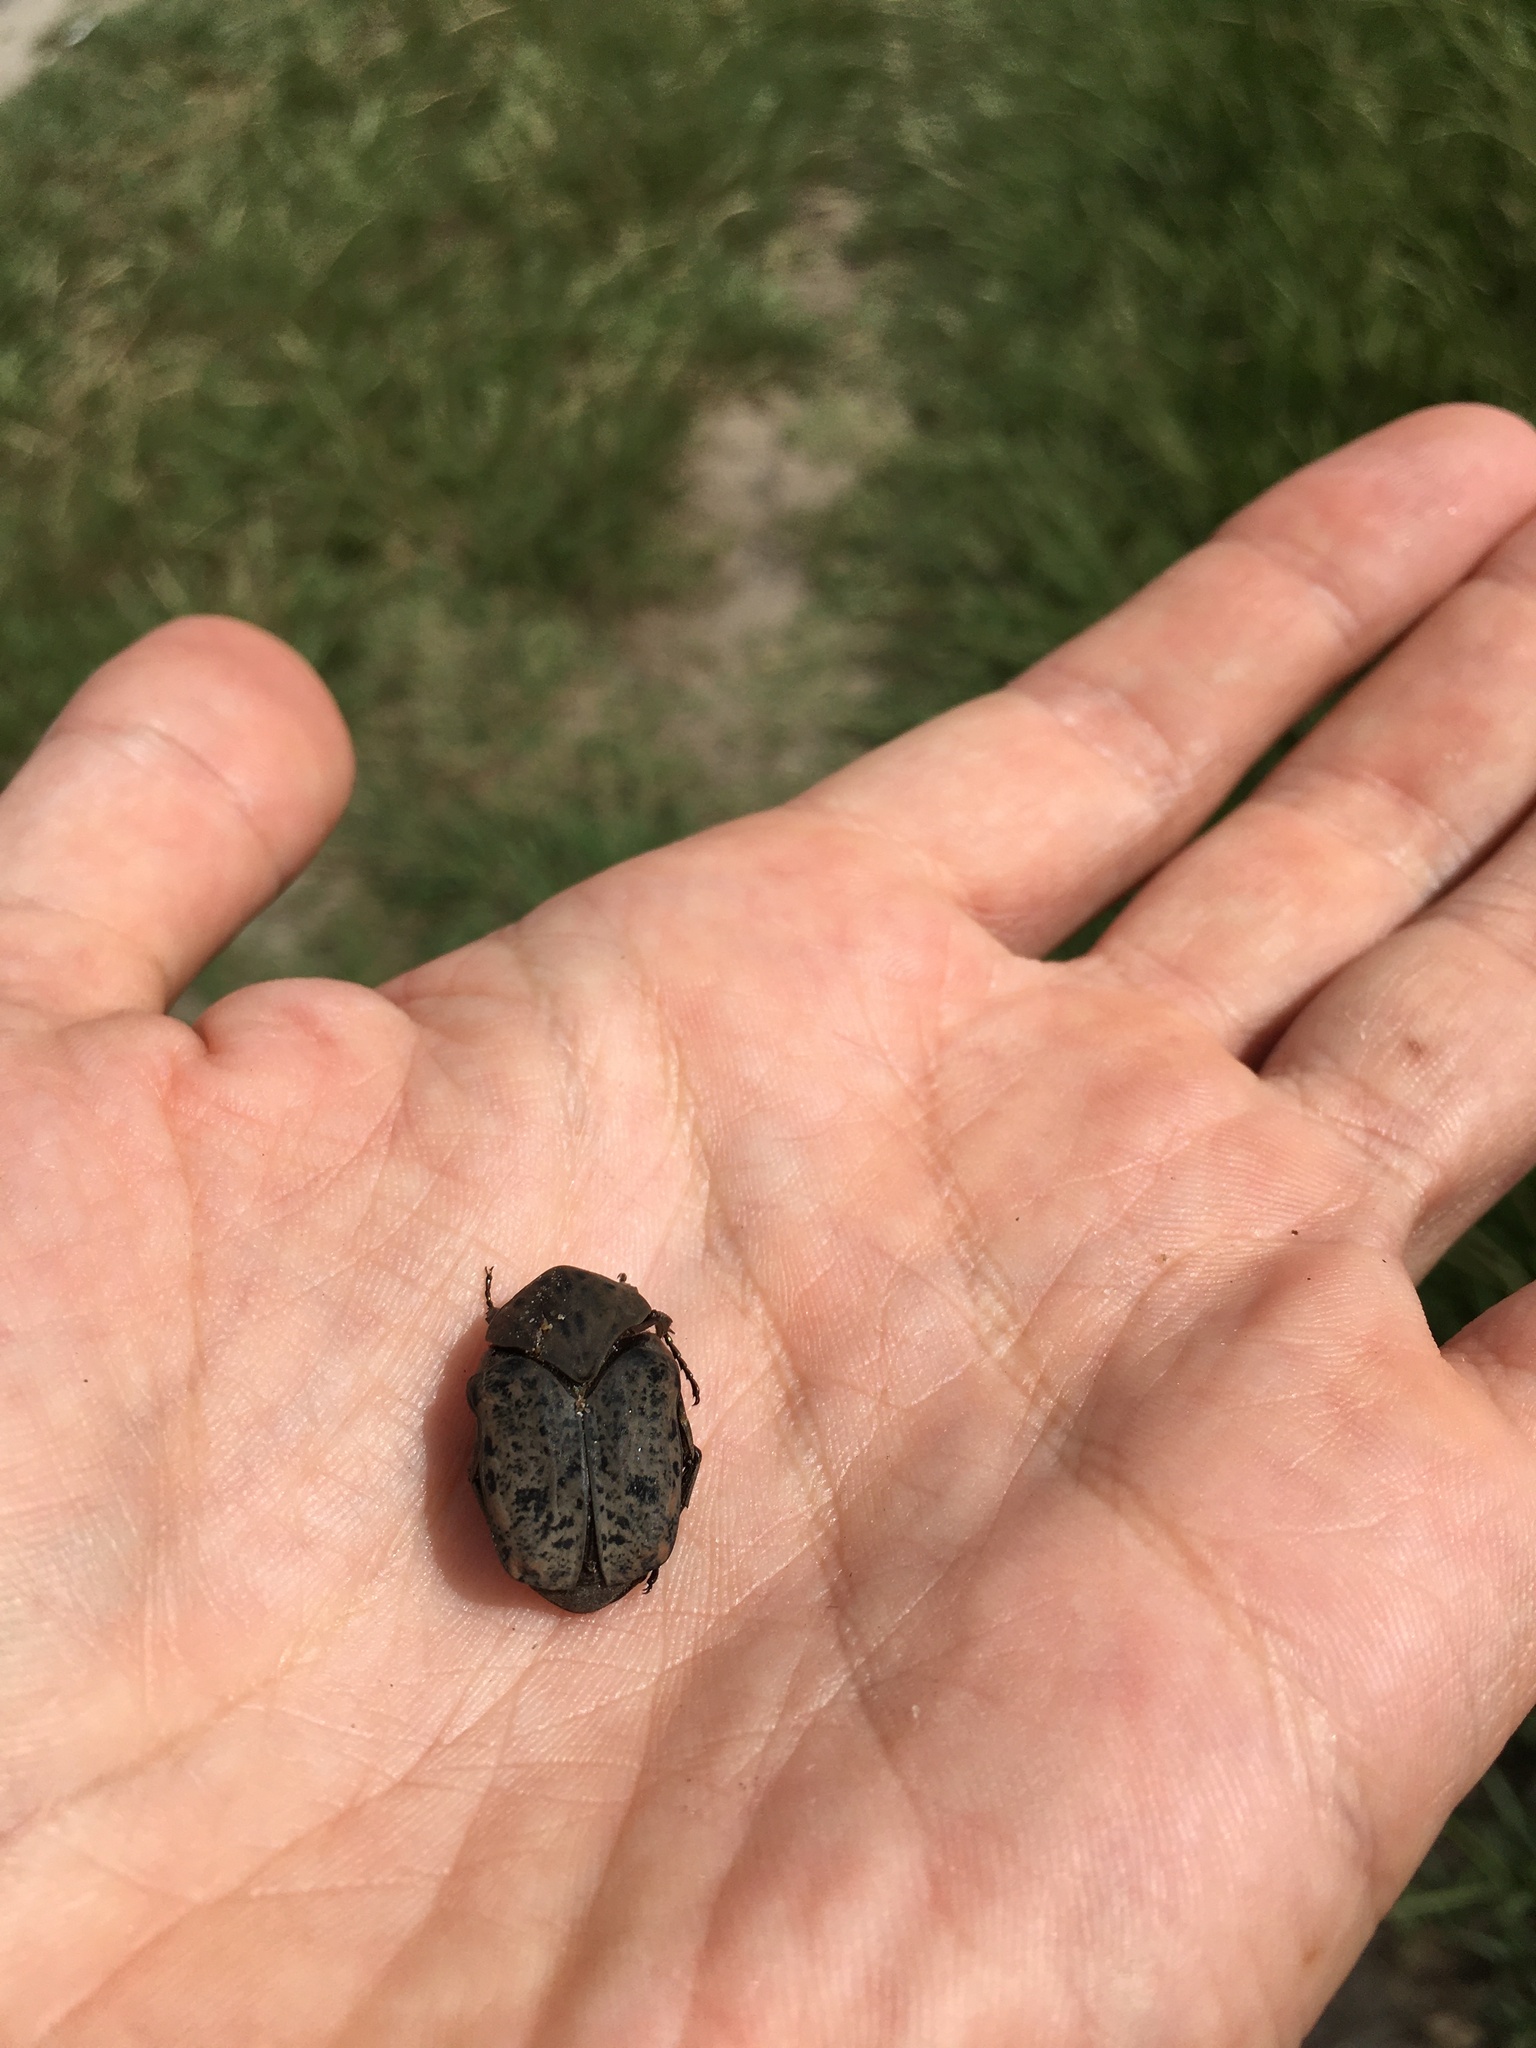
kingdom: Animalia
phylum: Arthropoda
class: Insecta
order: Coleoptera
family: Scarabaeidae
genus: Gymnetis
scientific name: Gymnetis litigiosa
